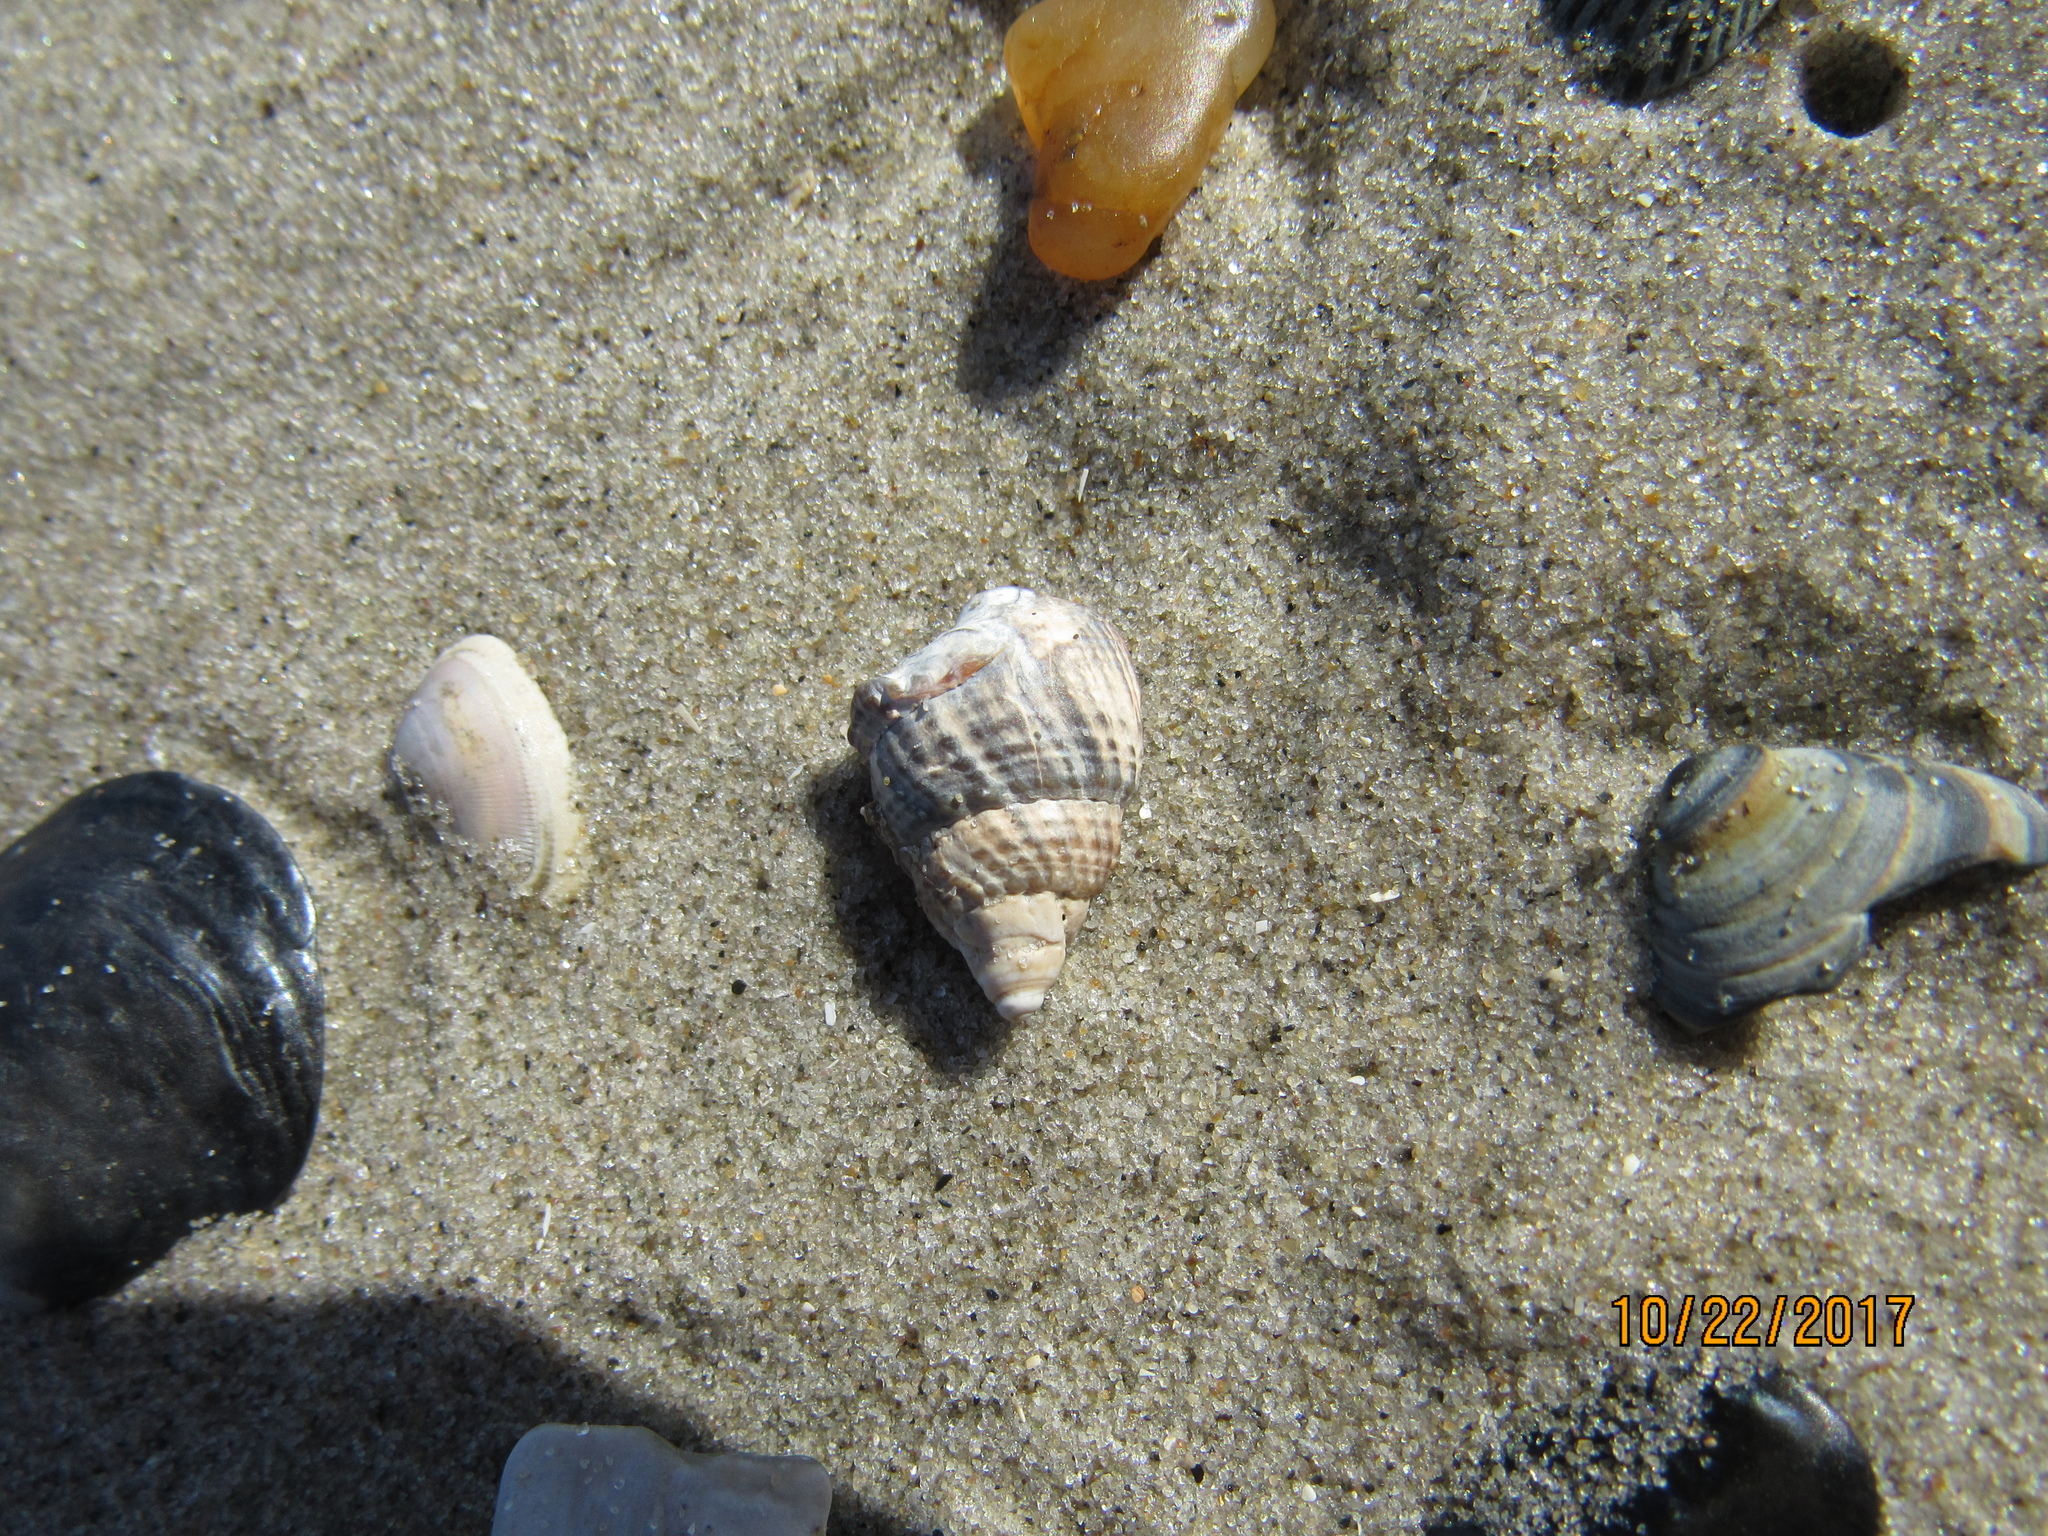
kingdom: Animalia
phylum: Mollusca
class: Gastropoda
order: Neogastropoda
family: Nassariidae
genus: Ilyanassa
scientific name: Ilyanassa obsoleta
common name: Eastern mudsnail
